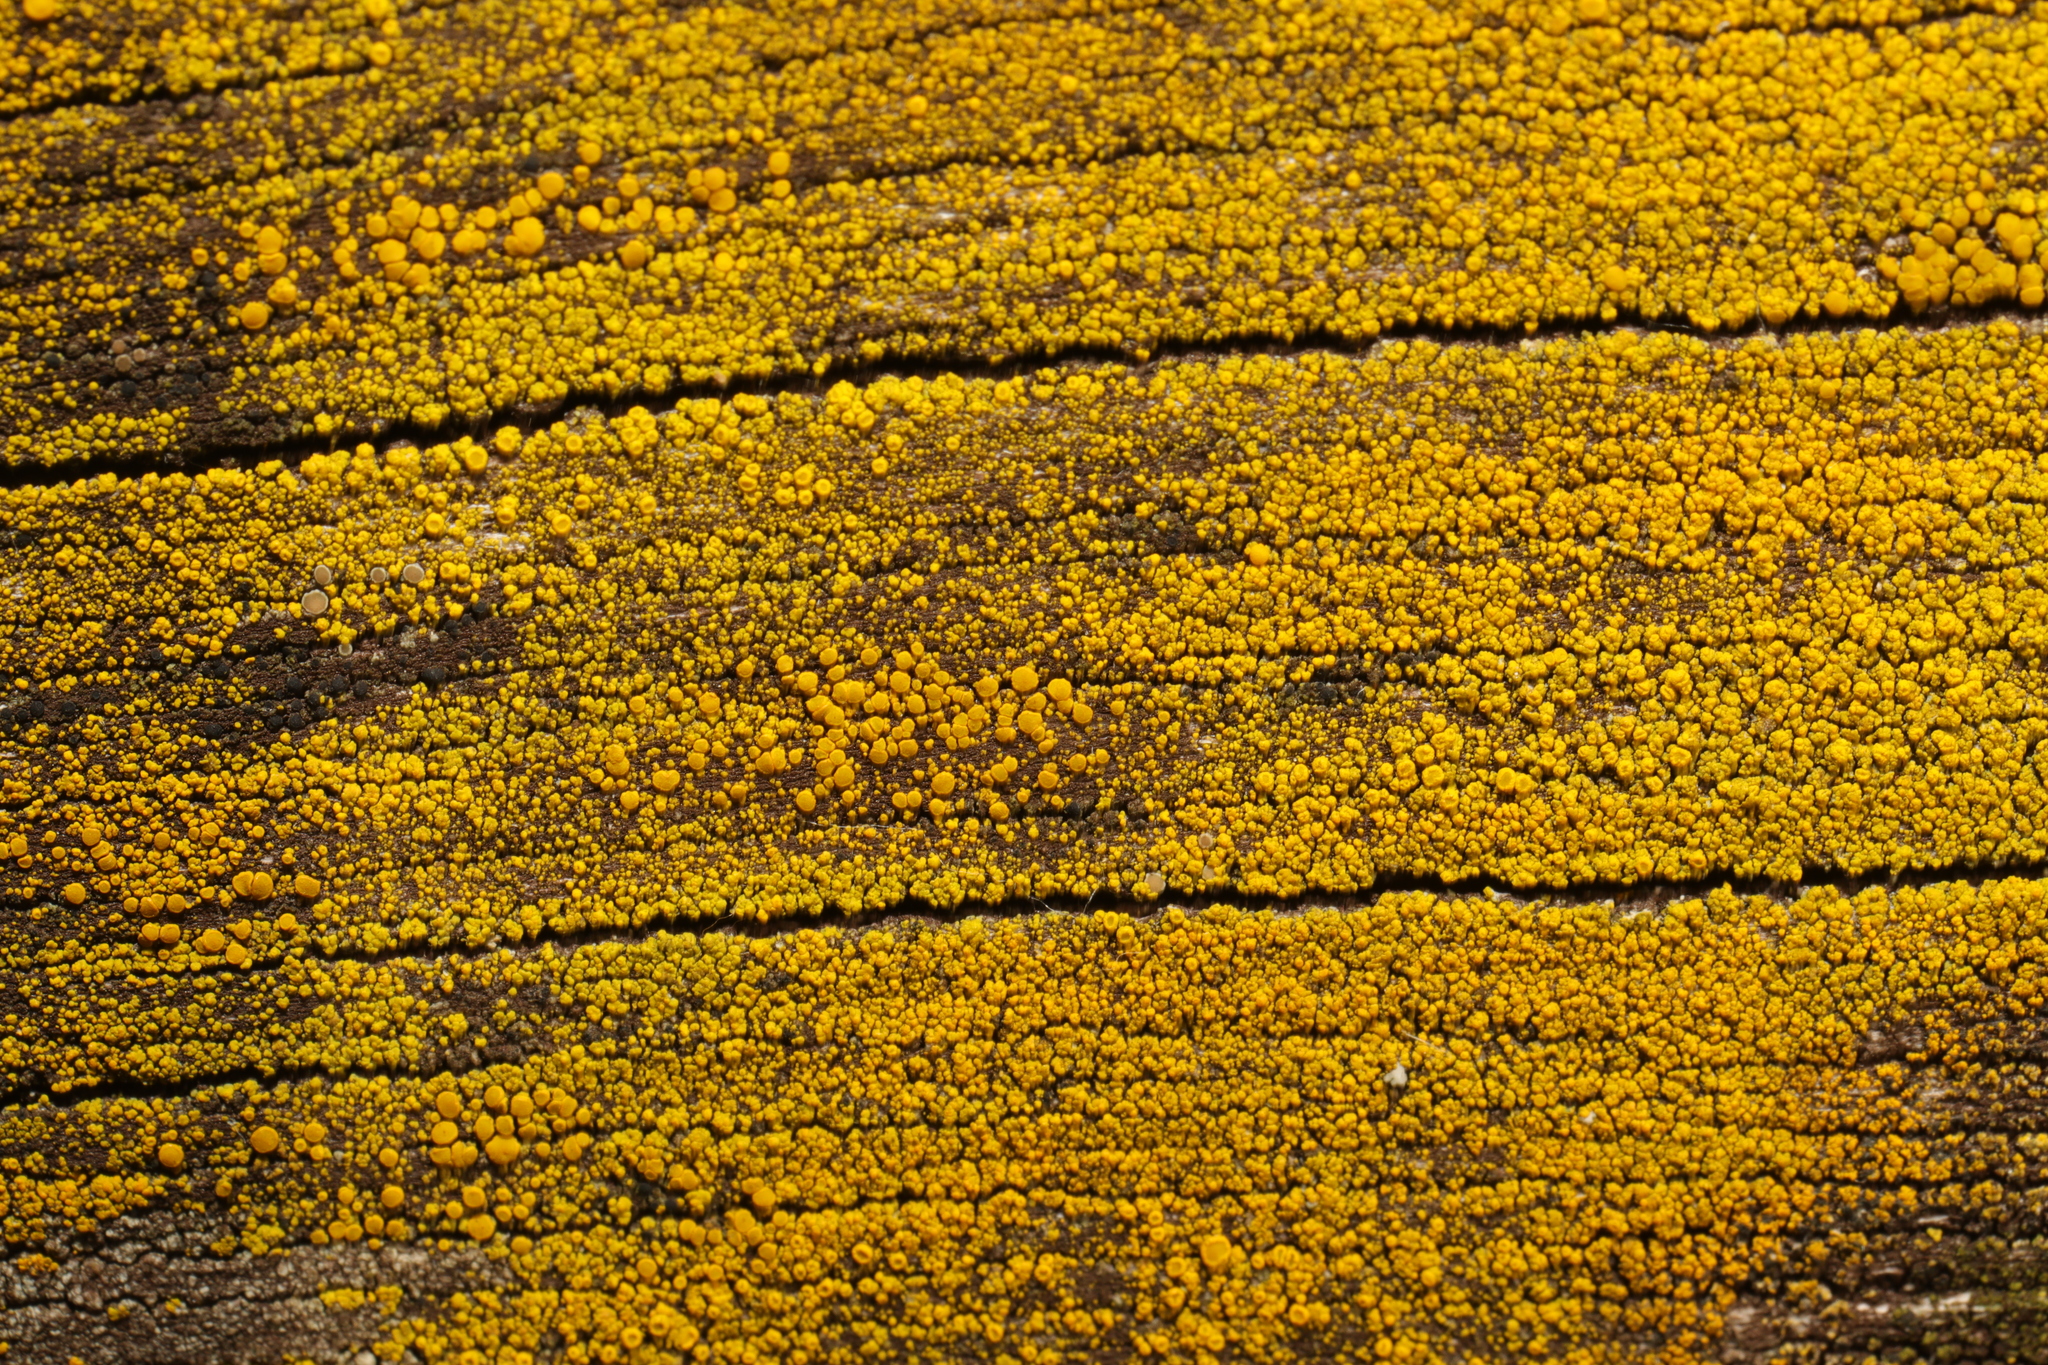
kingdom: Fungi
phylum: Ascomycota
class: Candelariomycetes
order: Candelariales
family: Candelariaceae
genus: Candelariella
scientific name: Candelariella vitellina
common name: Common goldspeck
